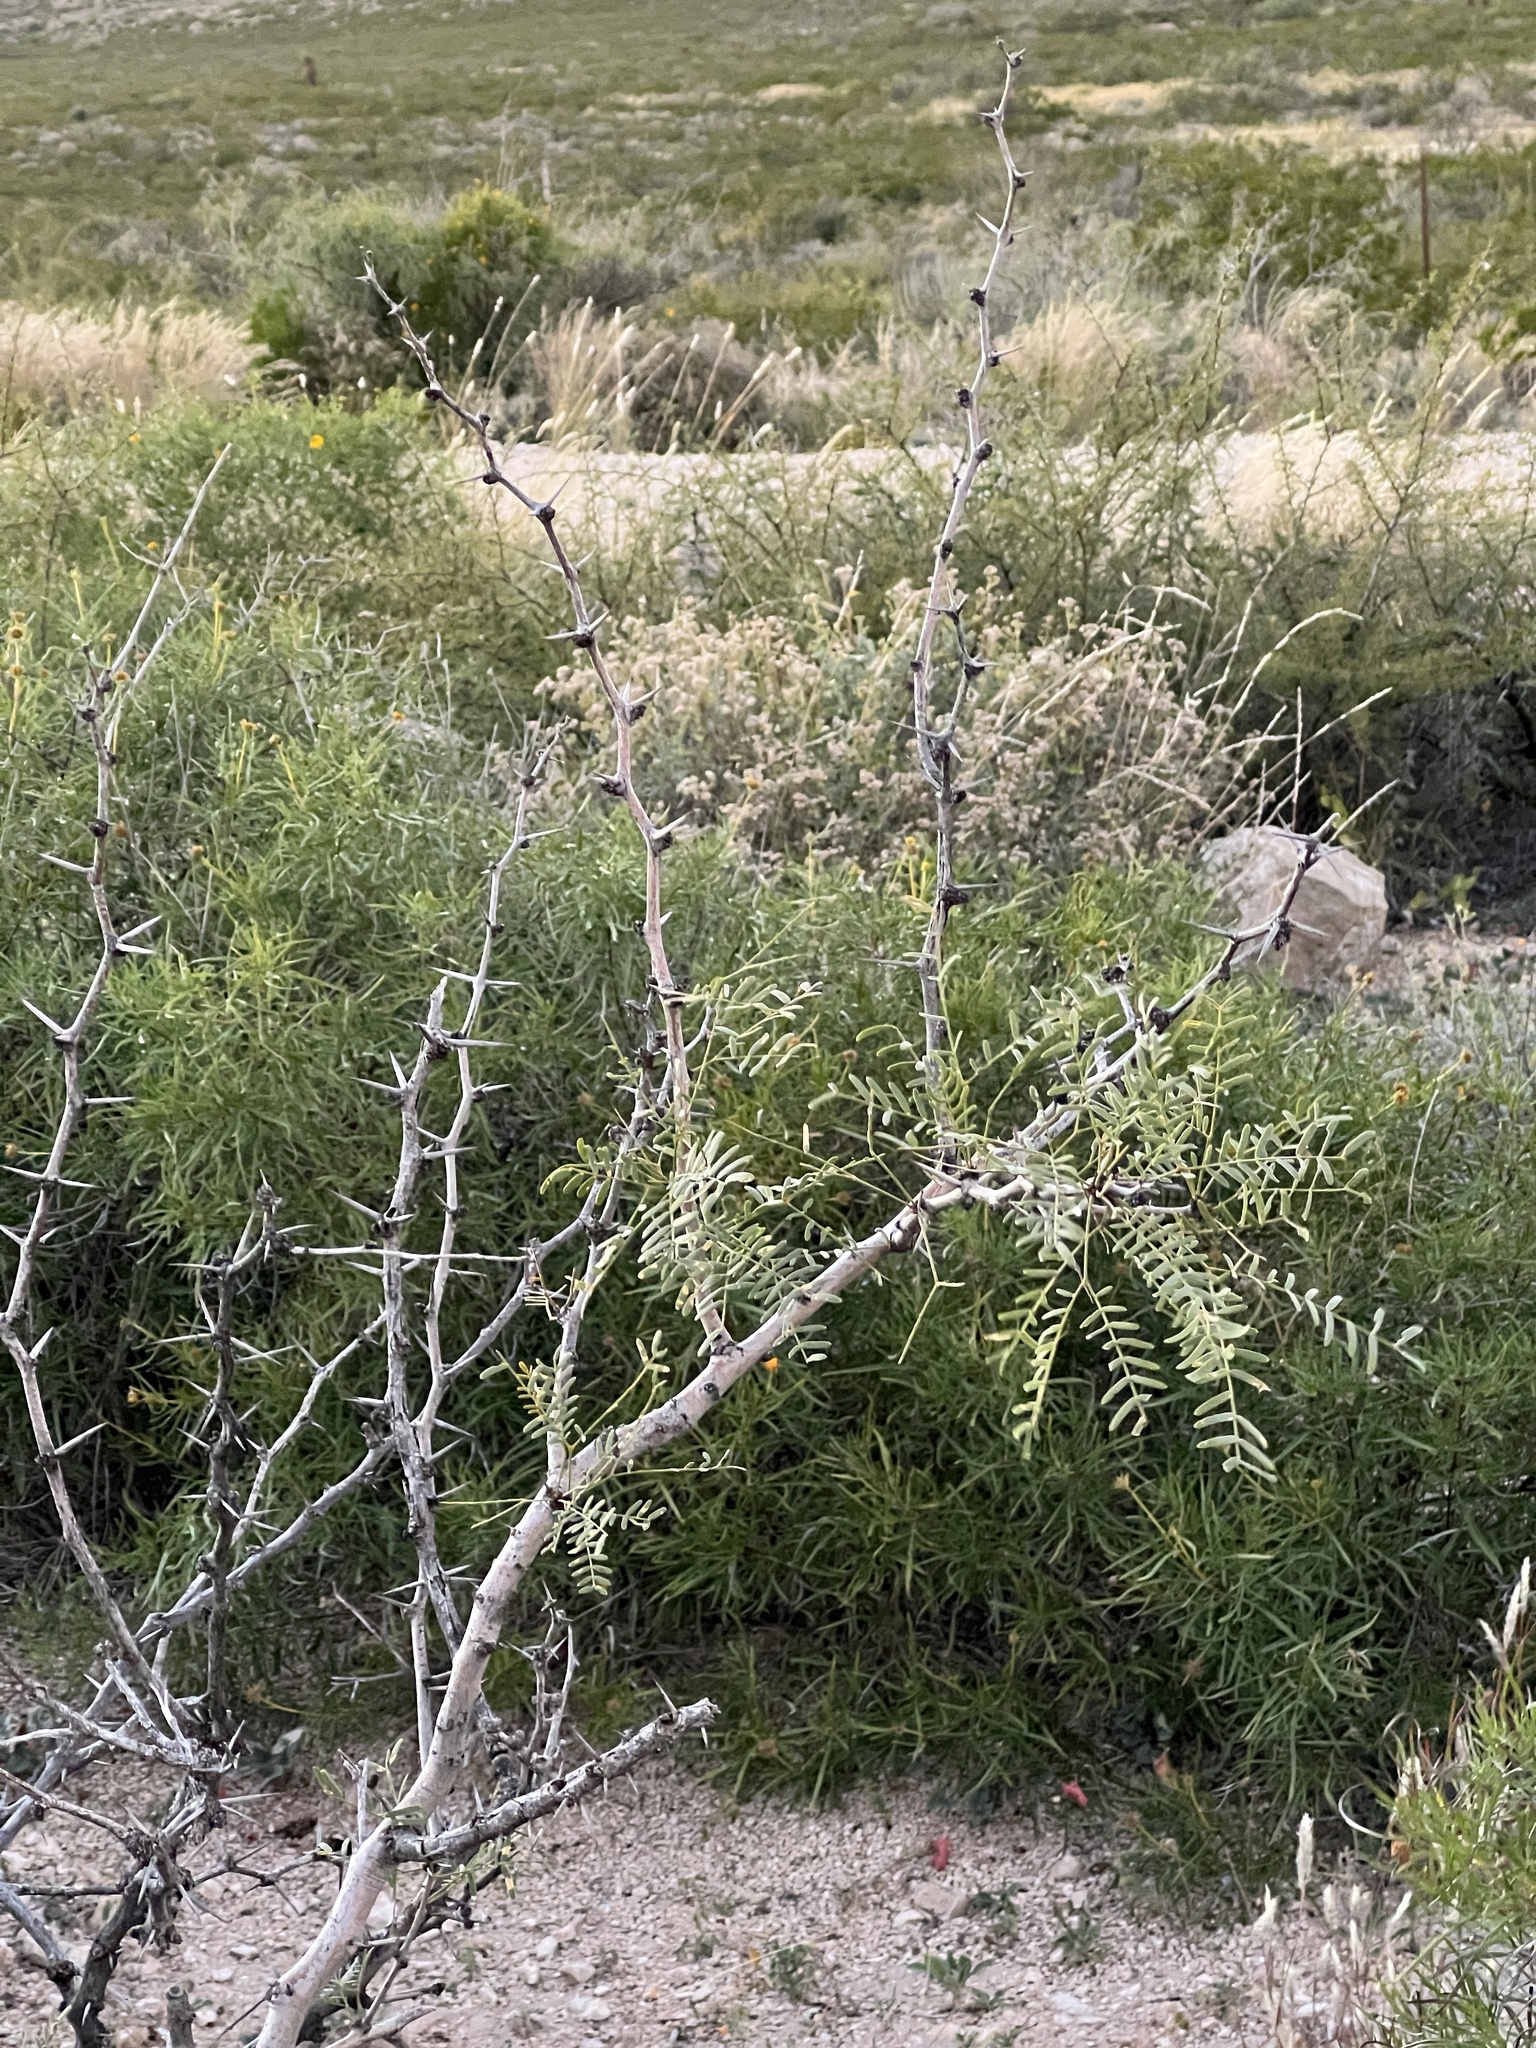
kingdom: Plantae
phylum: Tracheophyta
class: Magnoliopsida
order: Fabales
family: Fabaceae
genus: Prosopis
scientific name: Prosopis glandulosa
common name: Honey mesquite
